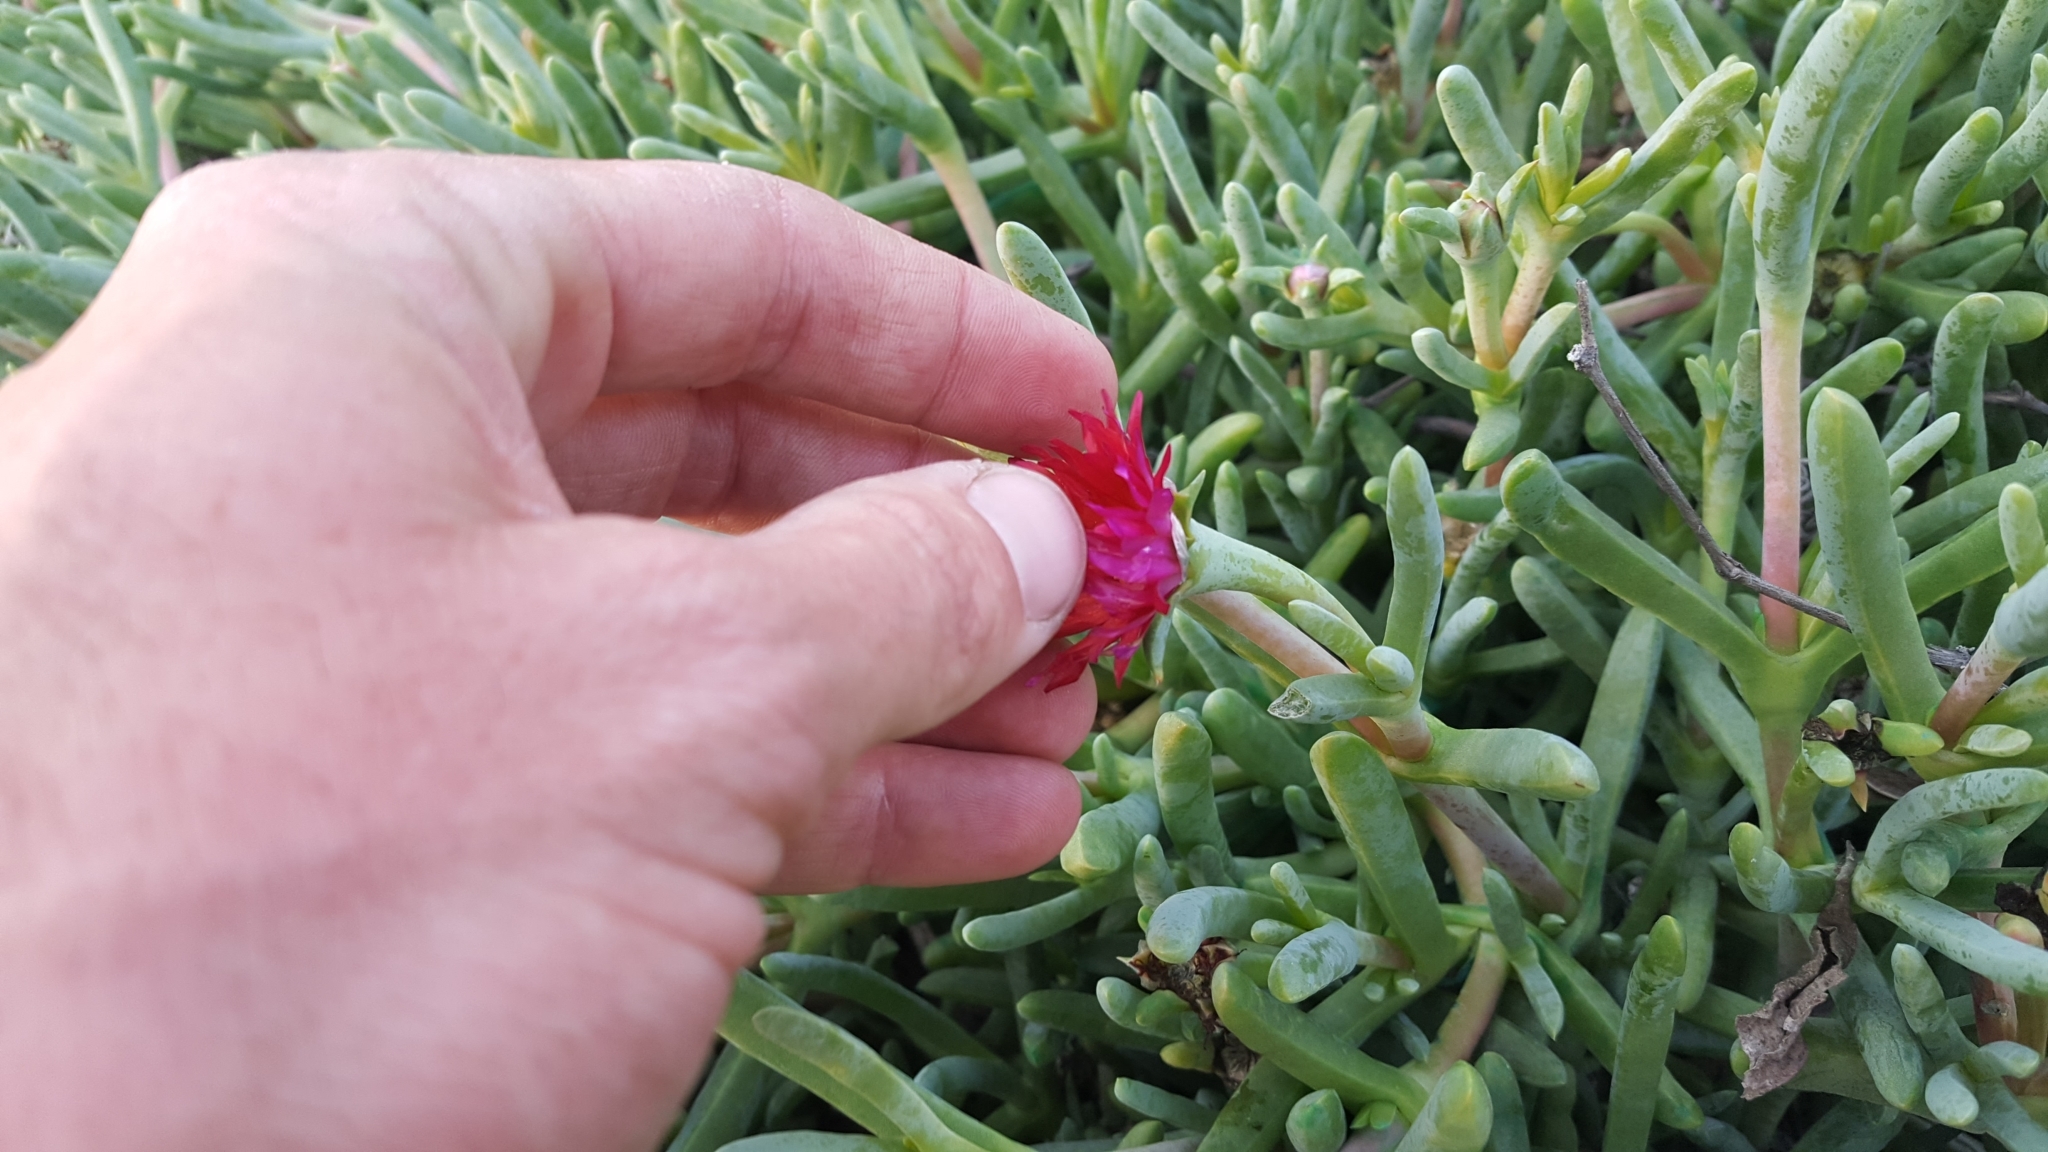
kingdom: Plantae
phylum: Tracheophyta
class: Magnoliopsida
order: Caryophyllales
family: Aizoaceae
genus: Malephora
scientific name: Malephora crocea
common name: Coppery mesemb
